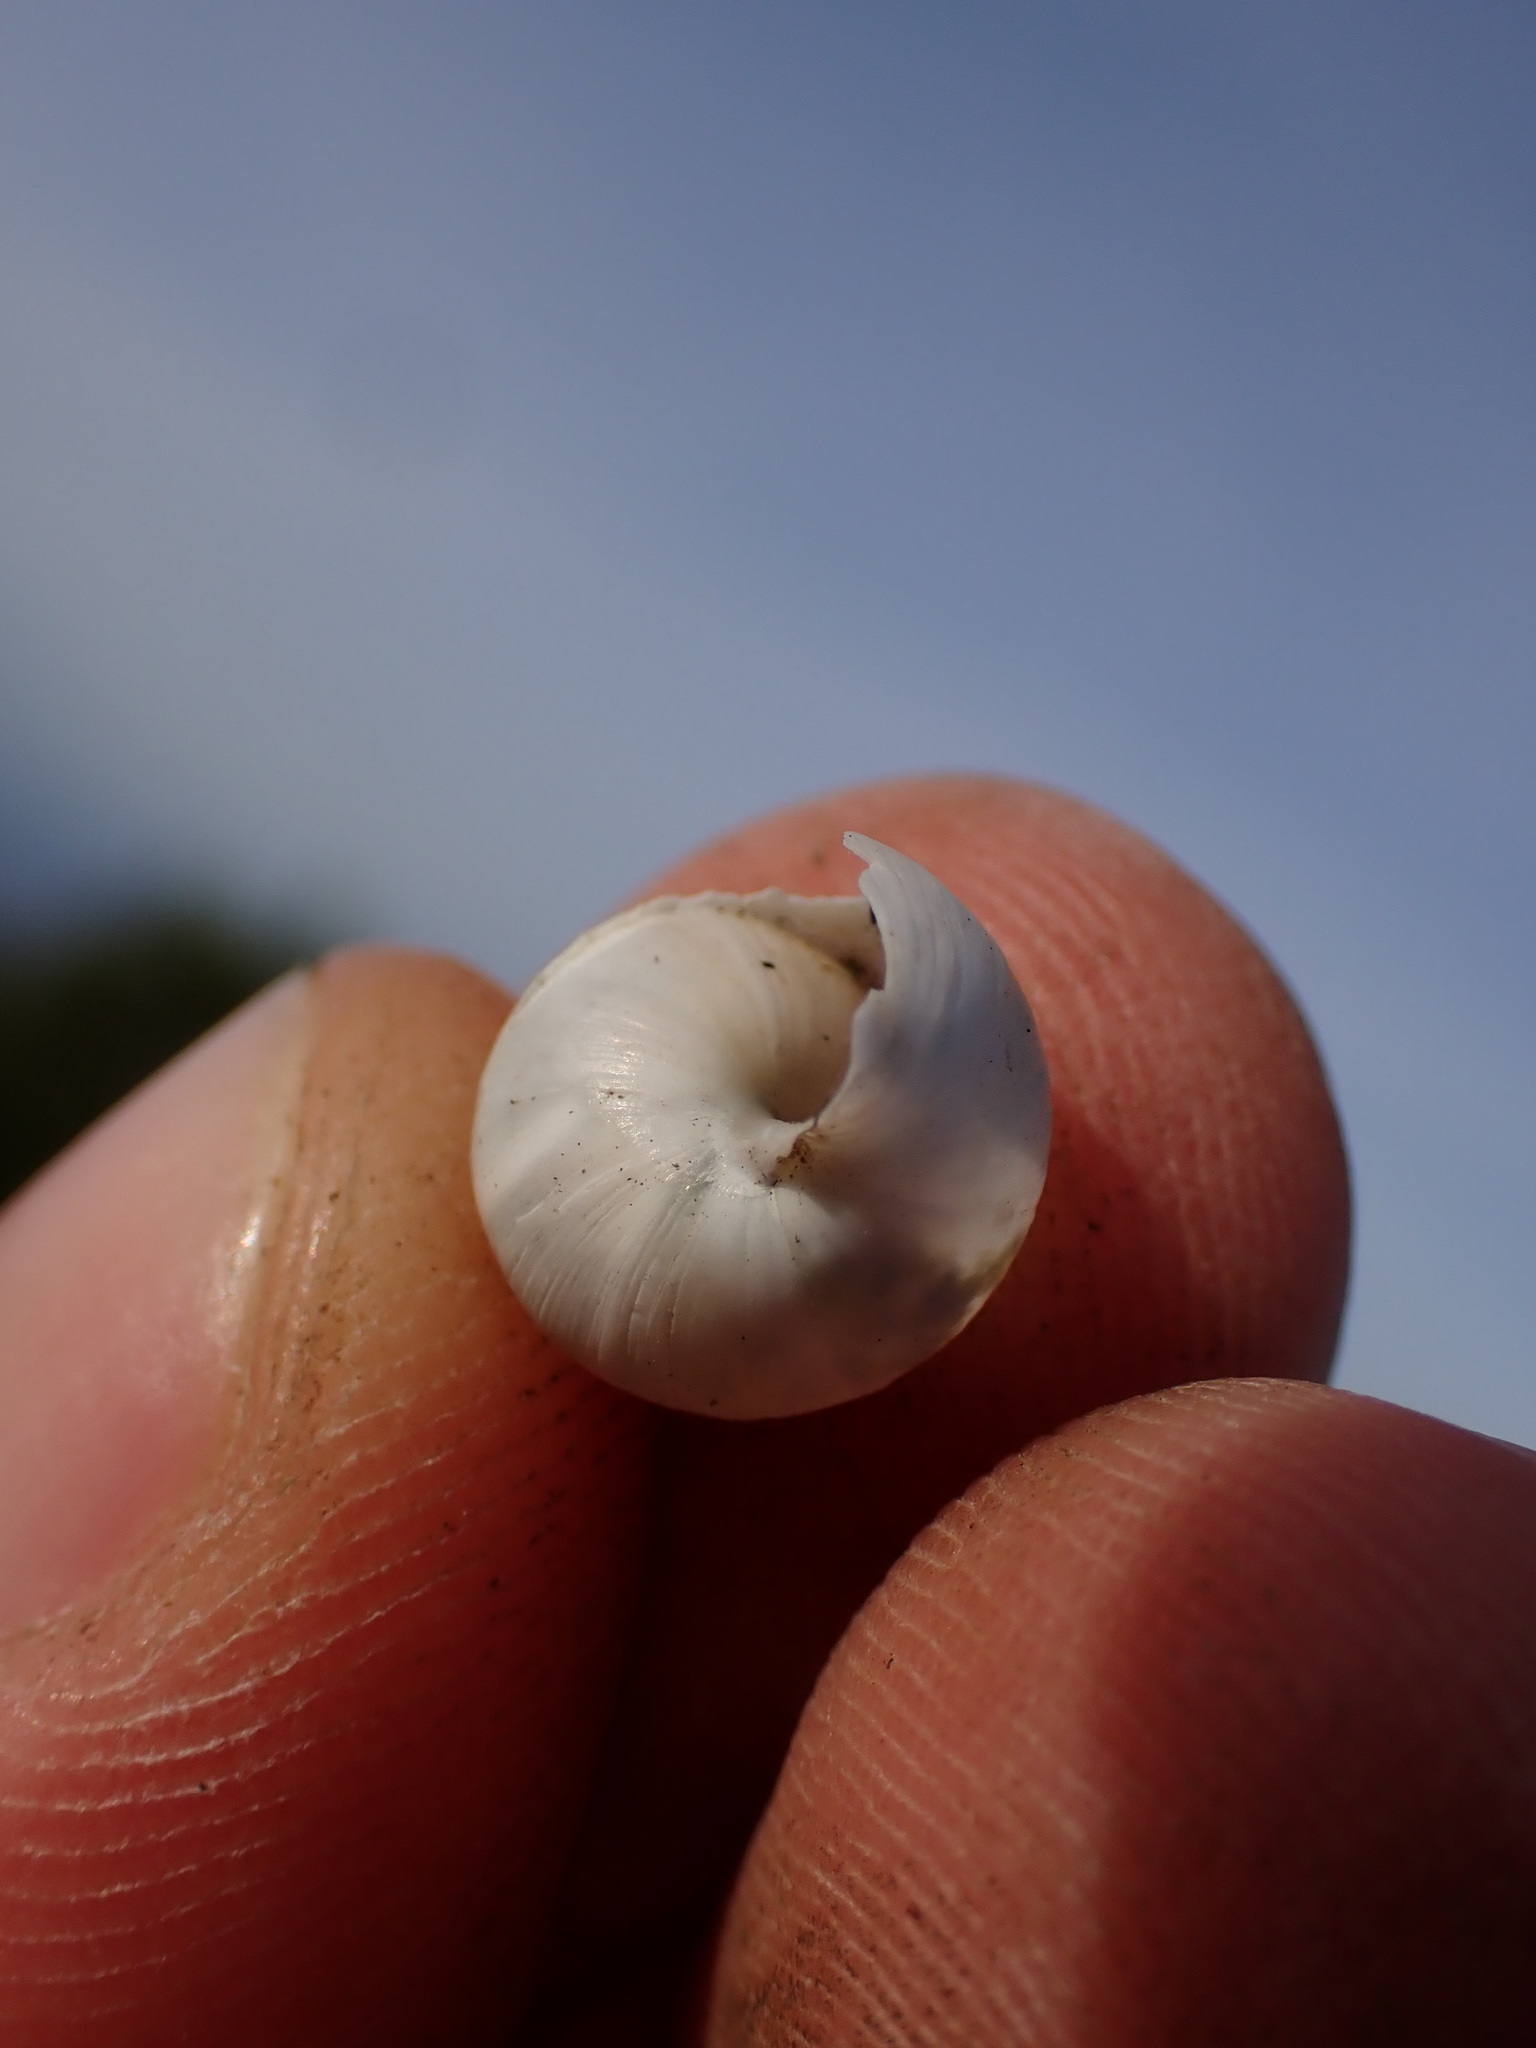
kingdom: Animalia
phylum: Mollusca
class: Gastropoda
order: Stylommatophora
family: Enidae
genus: Zebrina
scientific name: Zebrina detrita
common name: Large bulin
